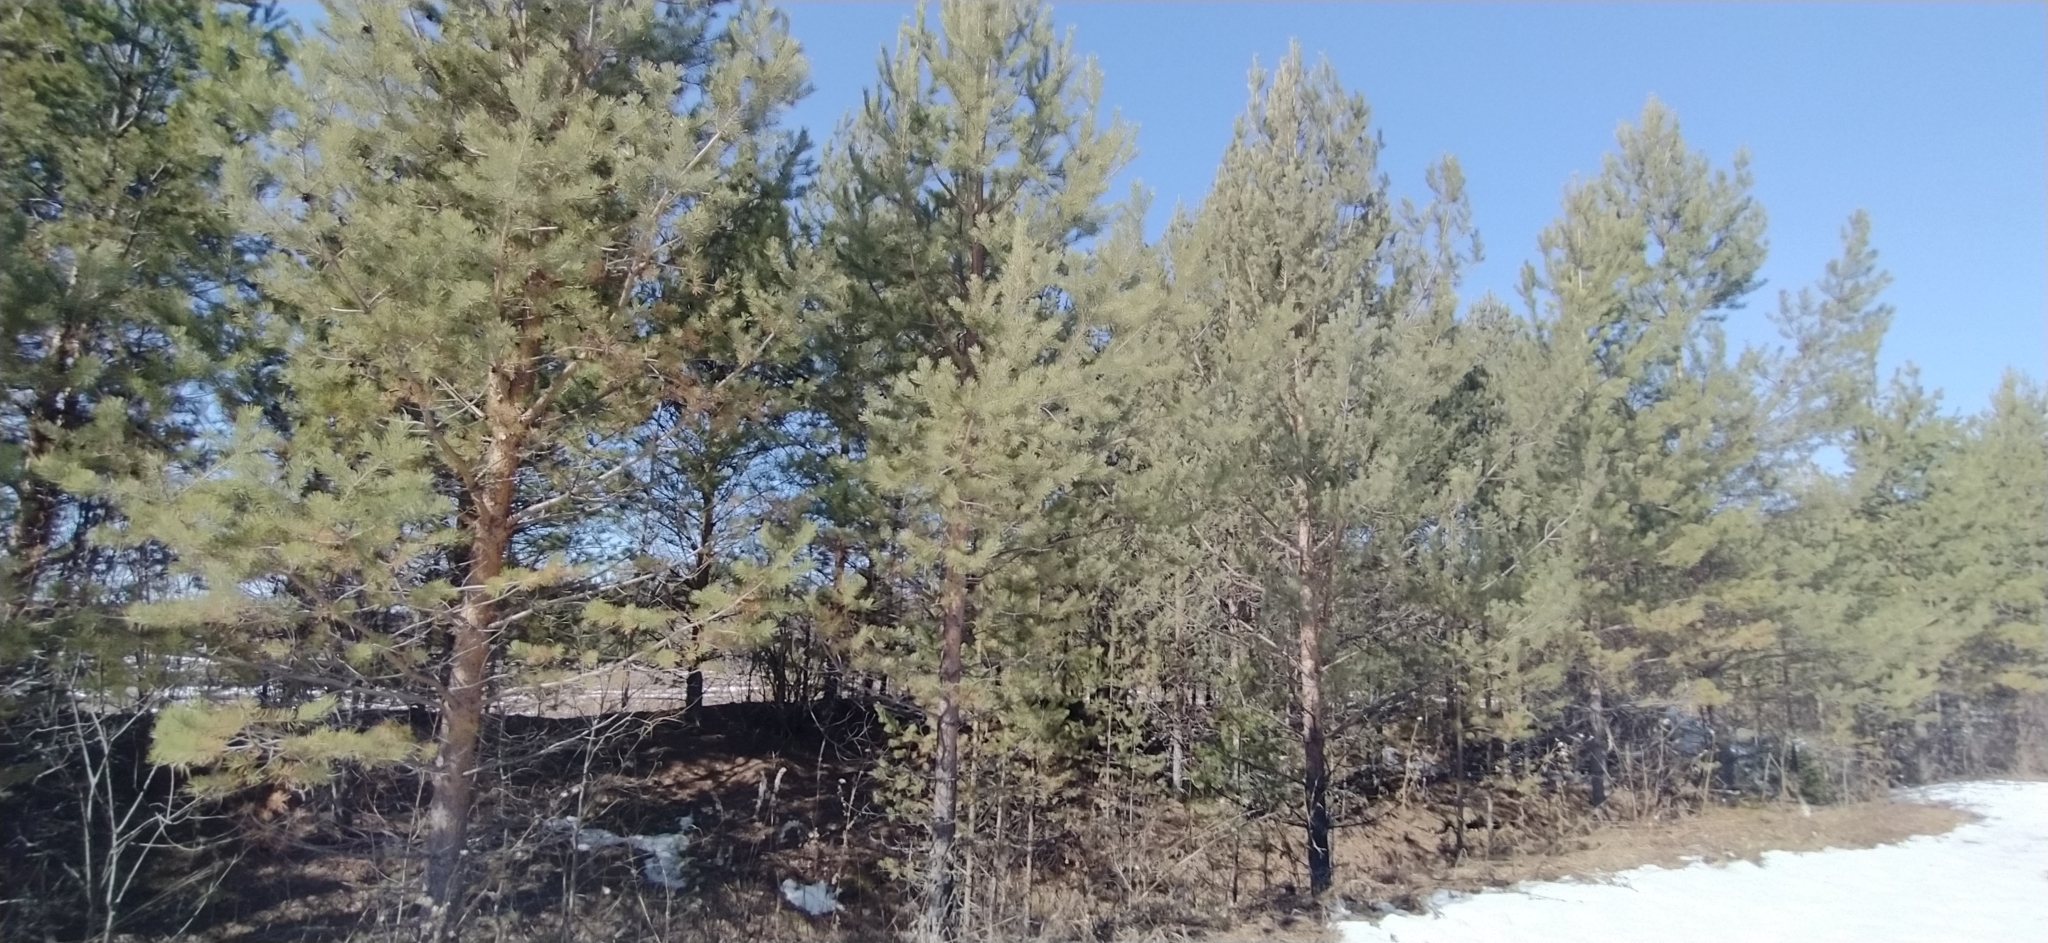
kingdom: Plantae
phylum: Tracheophyta
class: Pinopsida
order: Pinales
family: Pinaceae
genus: Pinus
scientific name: Pinus sylvestris
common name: Scots pine
